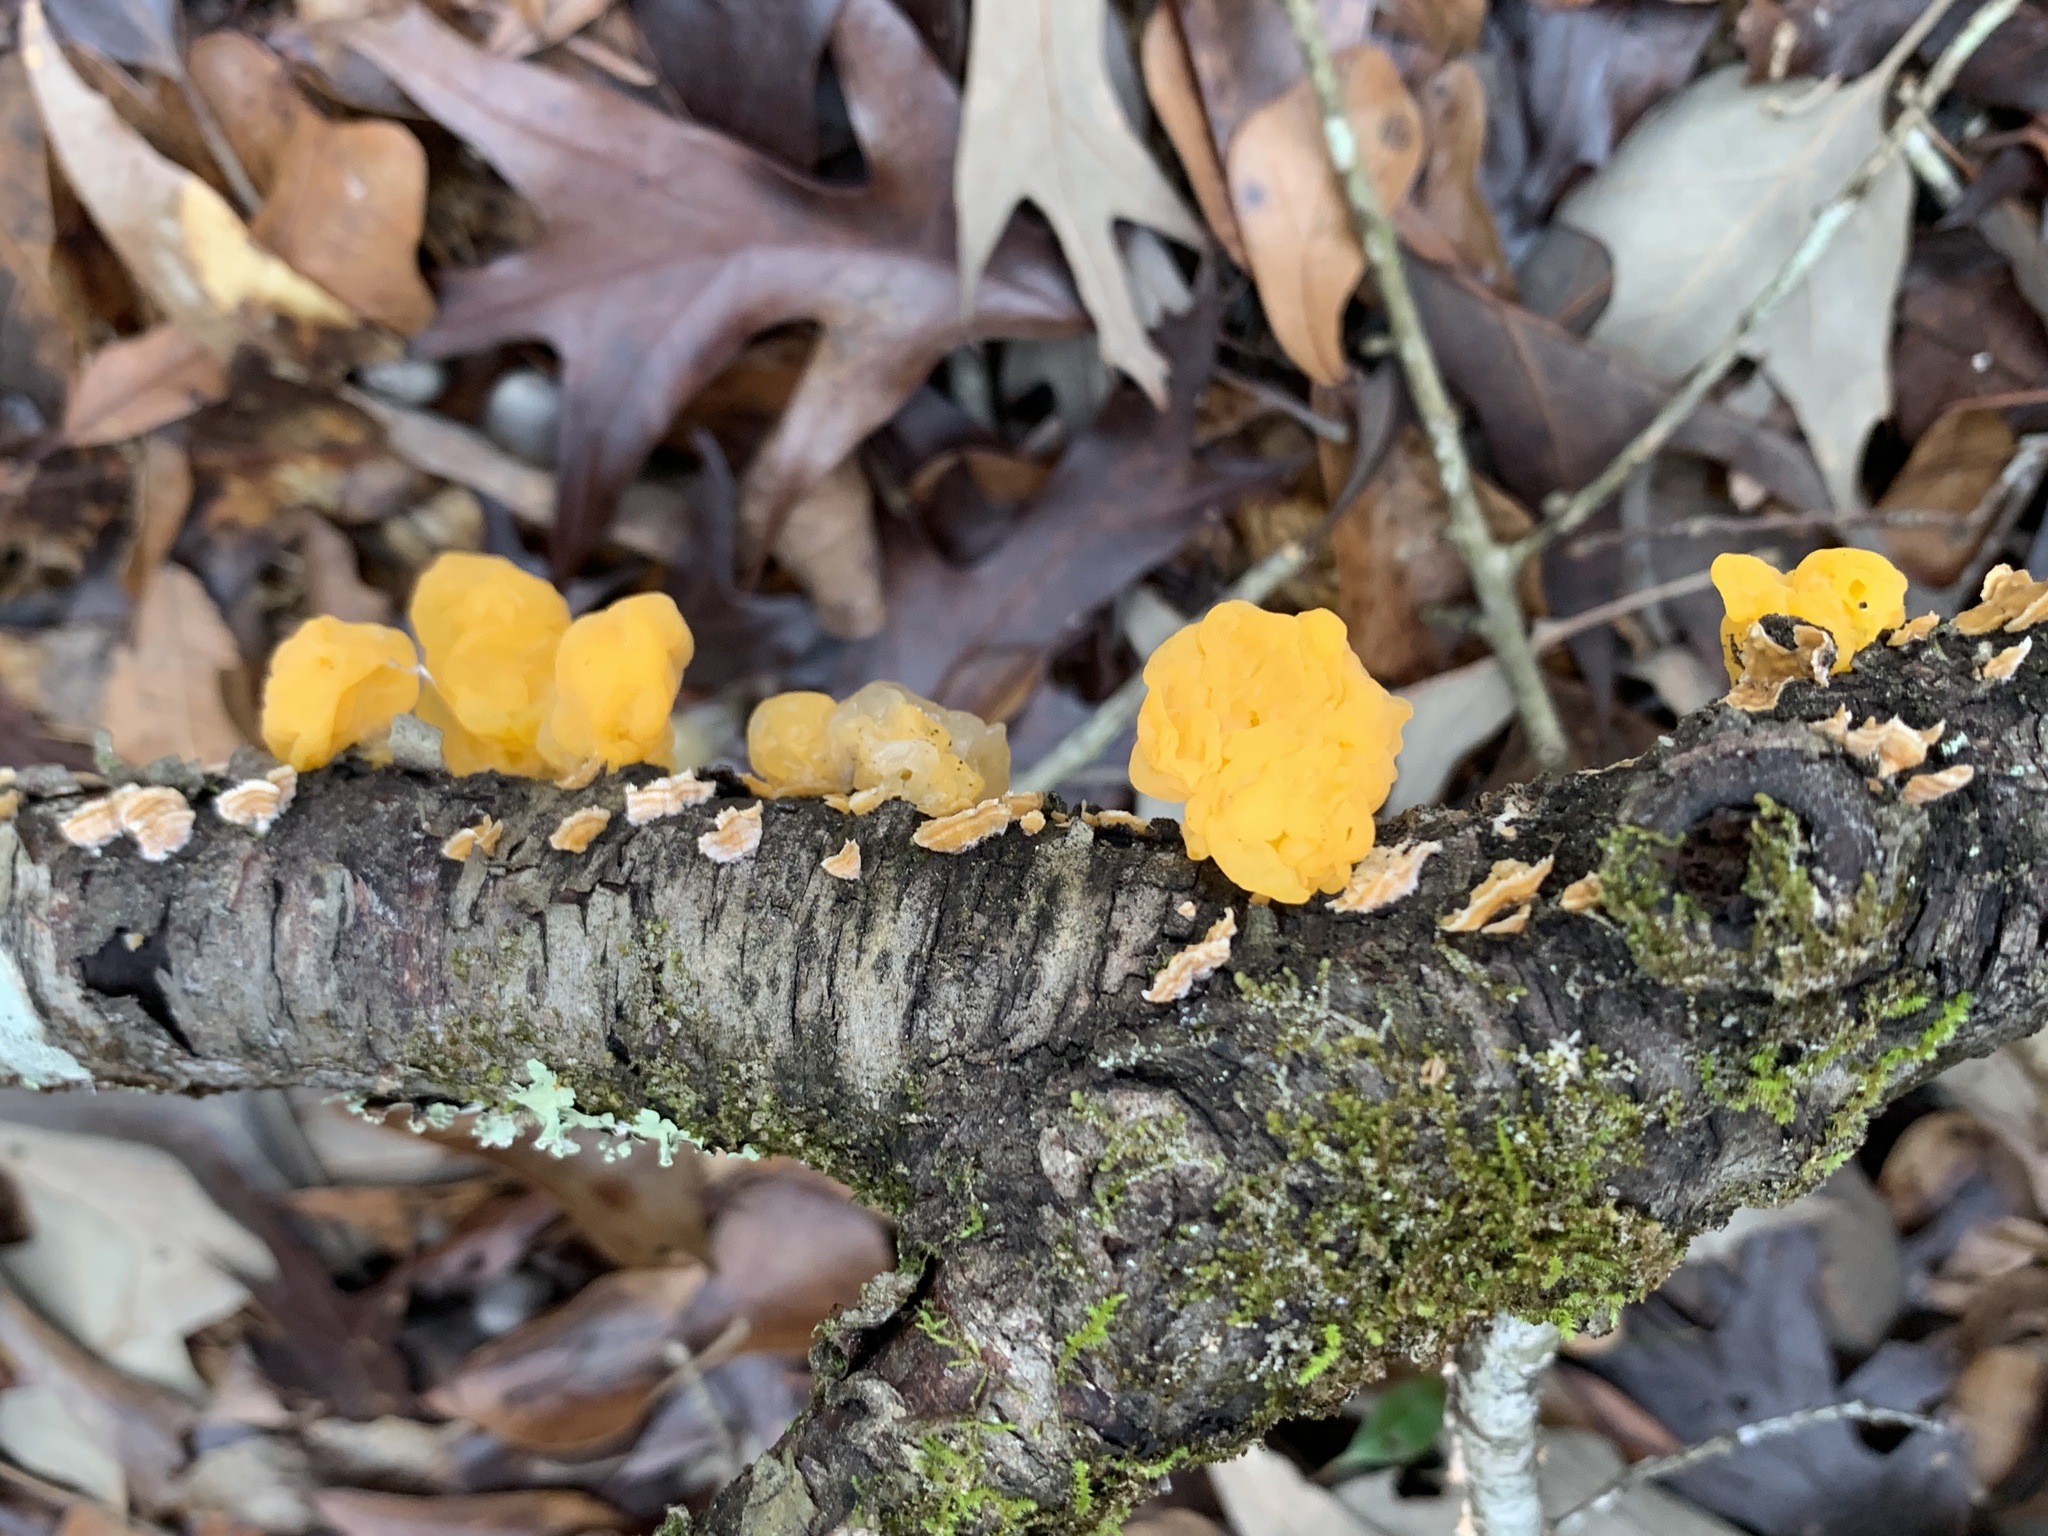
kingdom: Fungi
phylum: Basidiomycota
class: Tremellomycetes
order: Tremellales
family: Naemateliaceae
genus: Naematelia
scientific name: Naematelia aurantia
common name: Golden ear
